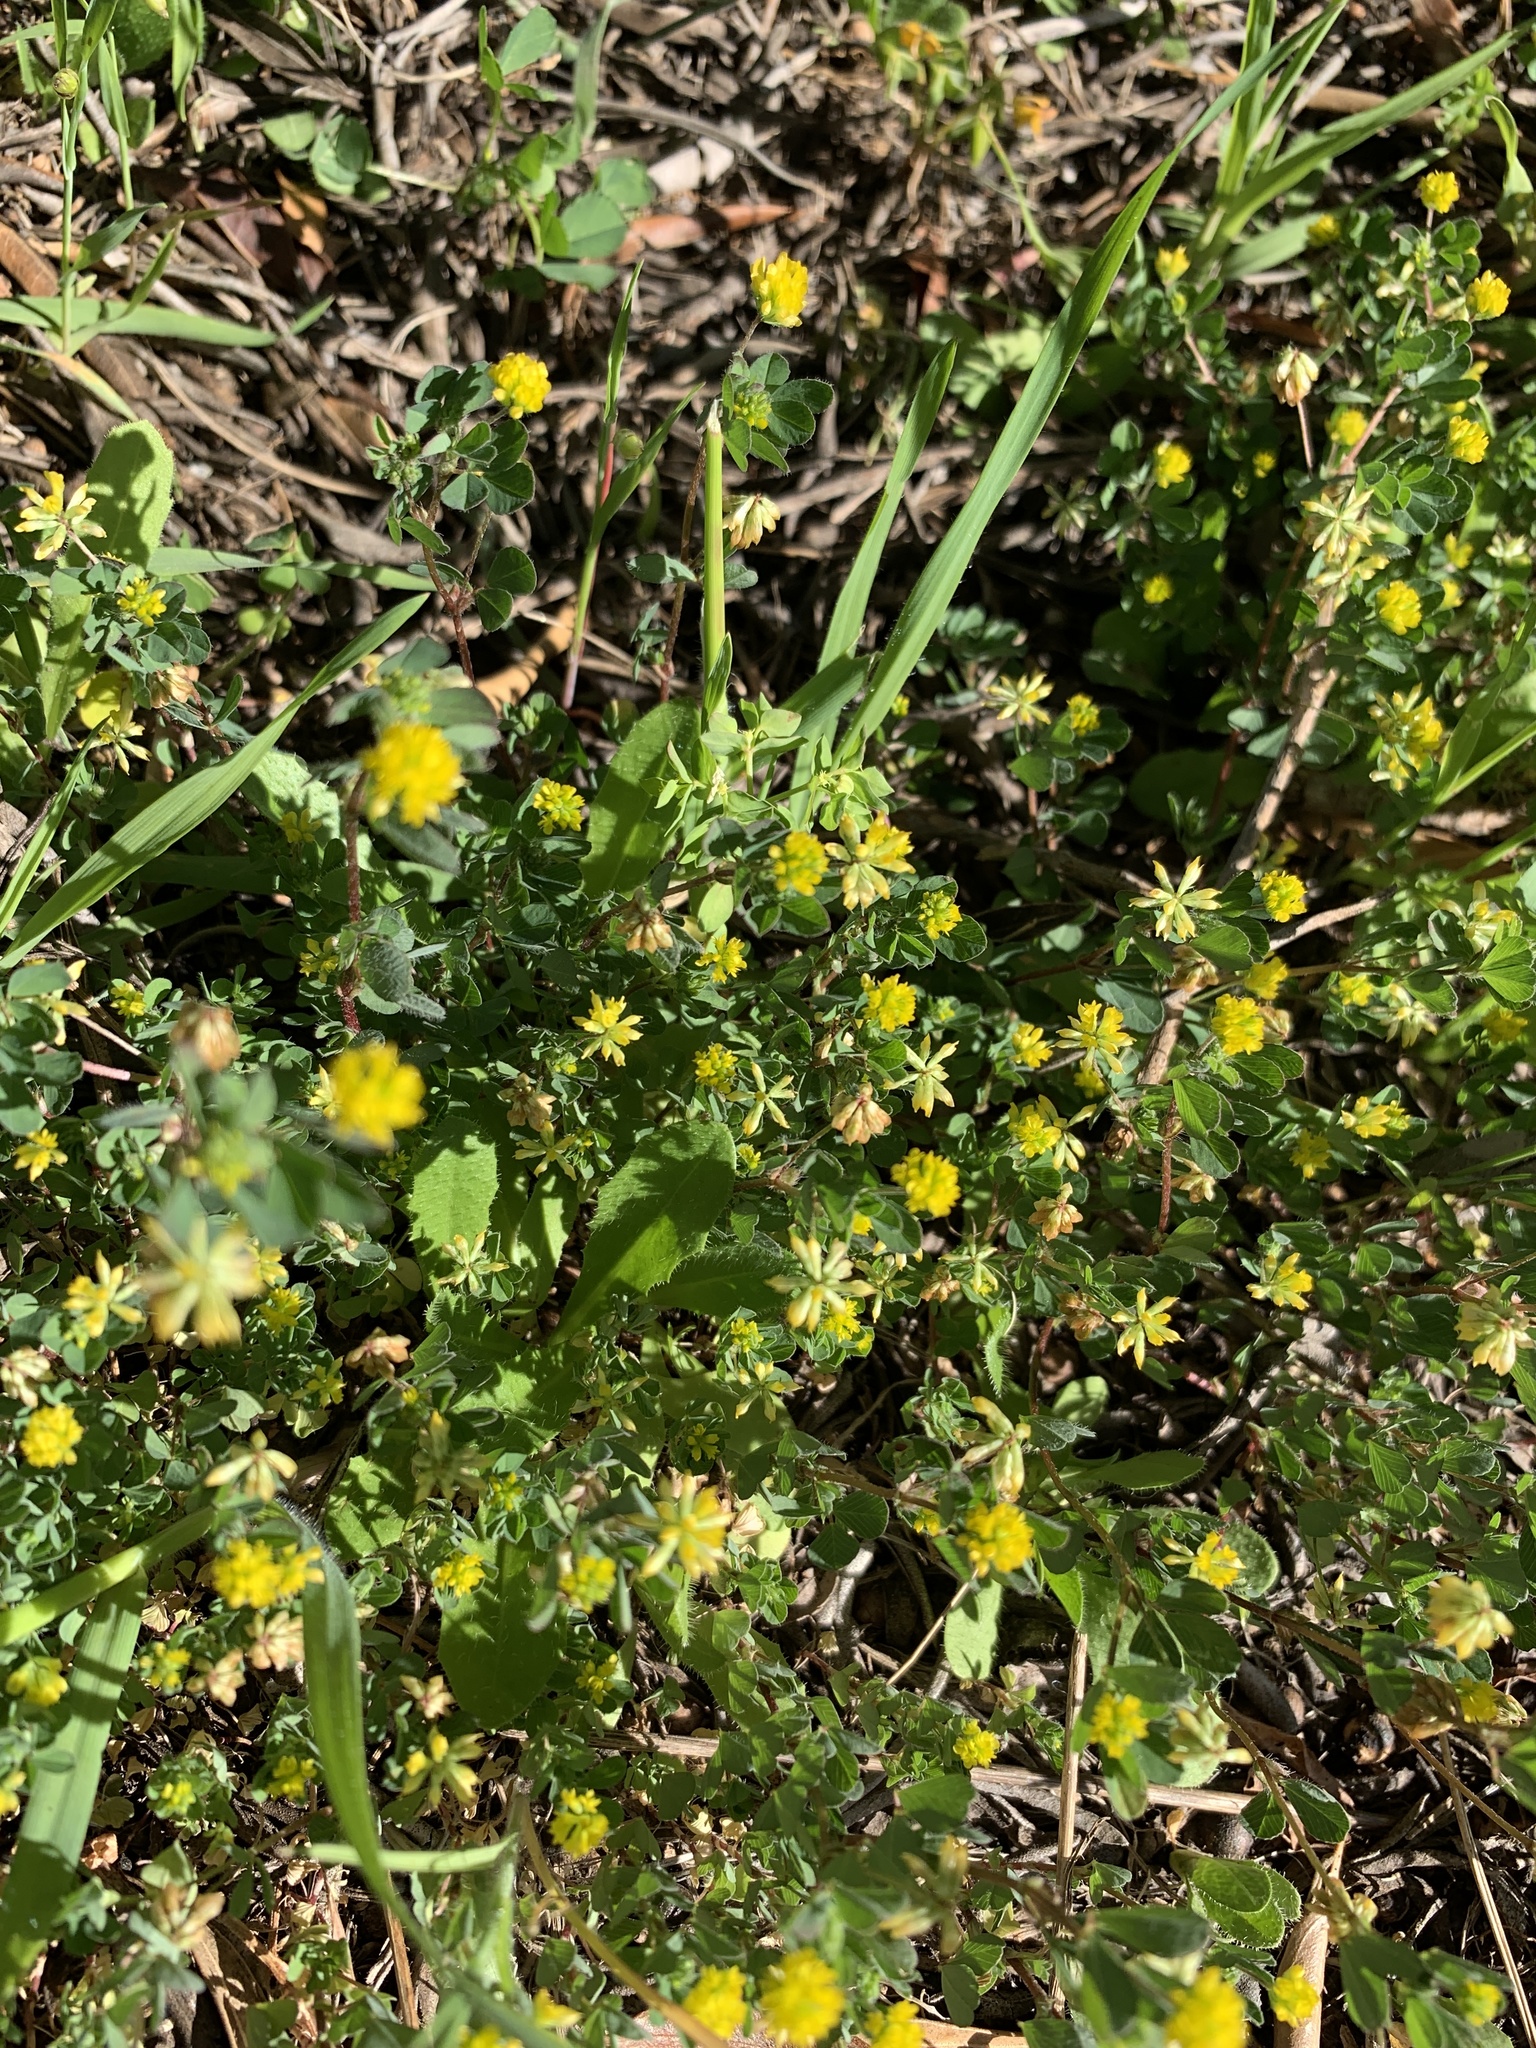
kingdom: Plantae
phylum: Tracheophyta
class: Magnoliopsida
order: Fabales
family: Fabaceae
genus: Trifolium
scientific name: Trifolium dubium
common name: Suckling clover
